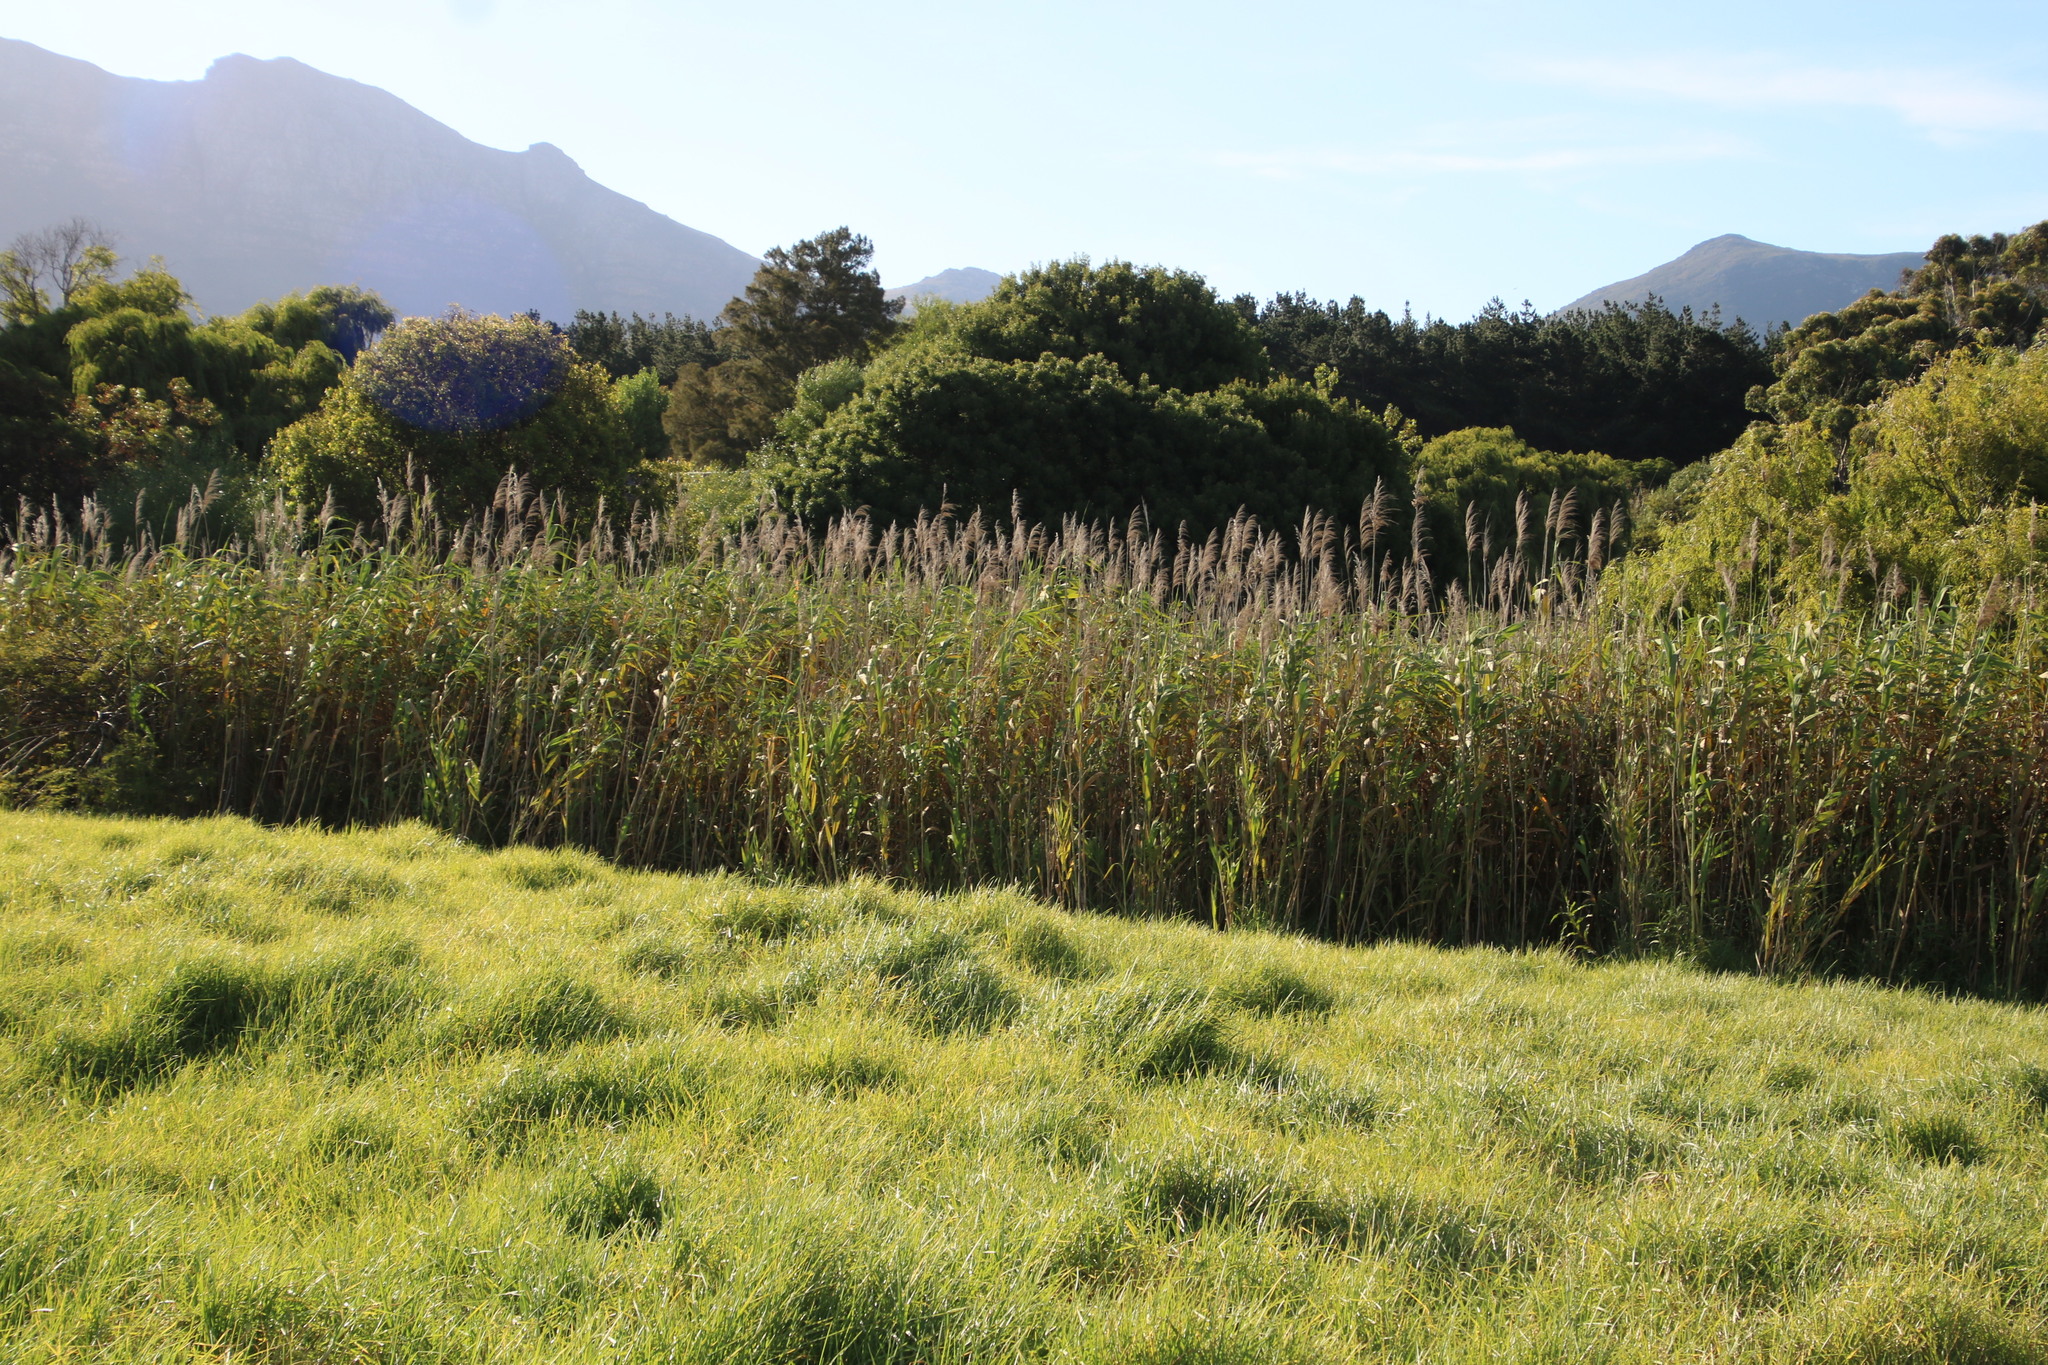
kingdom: Plantae
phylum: Tracheophyta
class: Liliopsida
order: Poales
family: Poaceae
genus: Phragmites
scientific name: Phragmites australis
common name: Common reed
